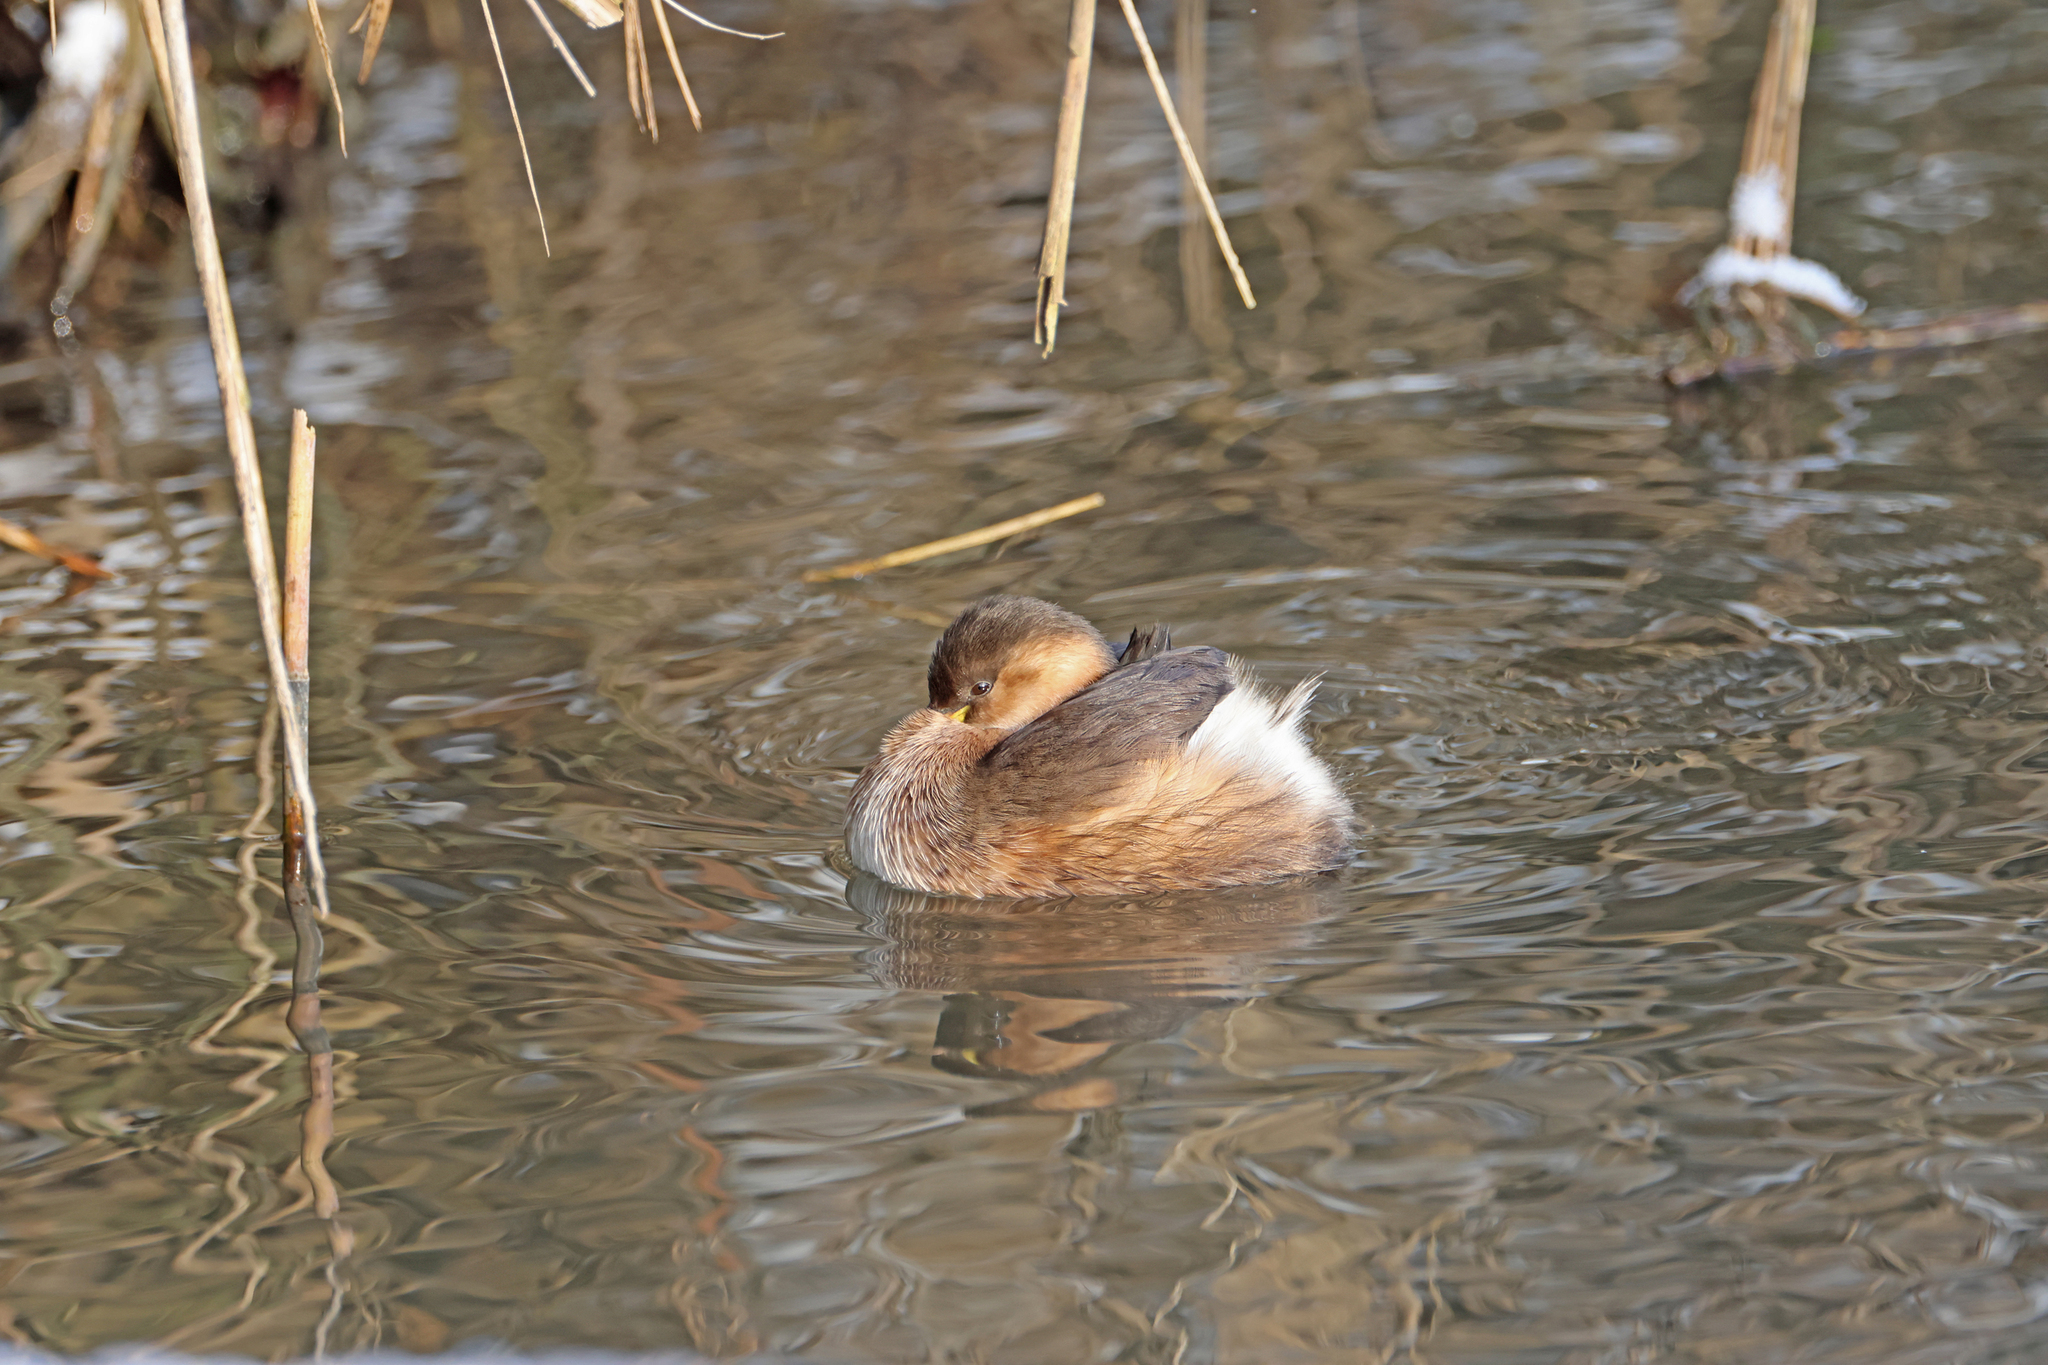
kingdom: Animalia
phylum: Chordata
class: Aves
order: Podicipediformes
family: Podicipedidae
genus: Tachybaptus
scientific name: Tachybaptus ruficollis
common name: Little grebe
